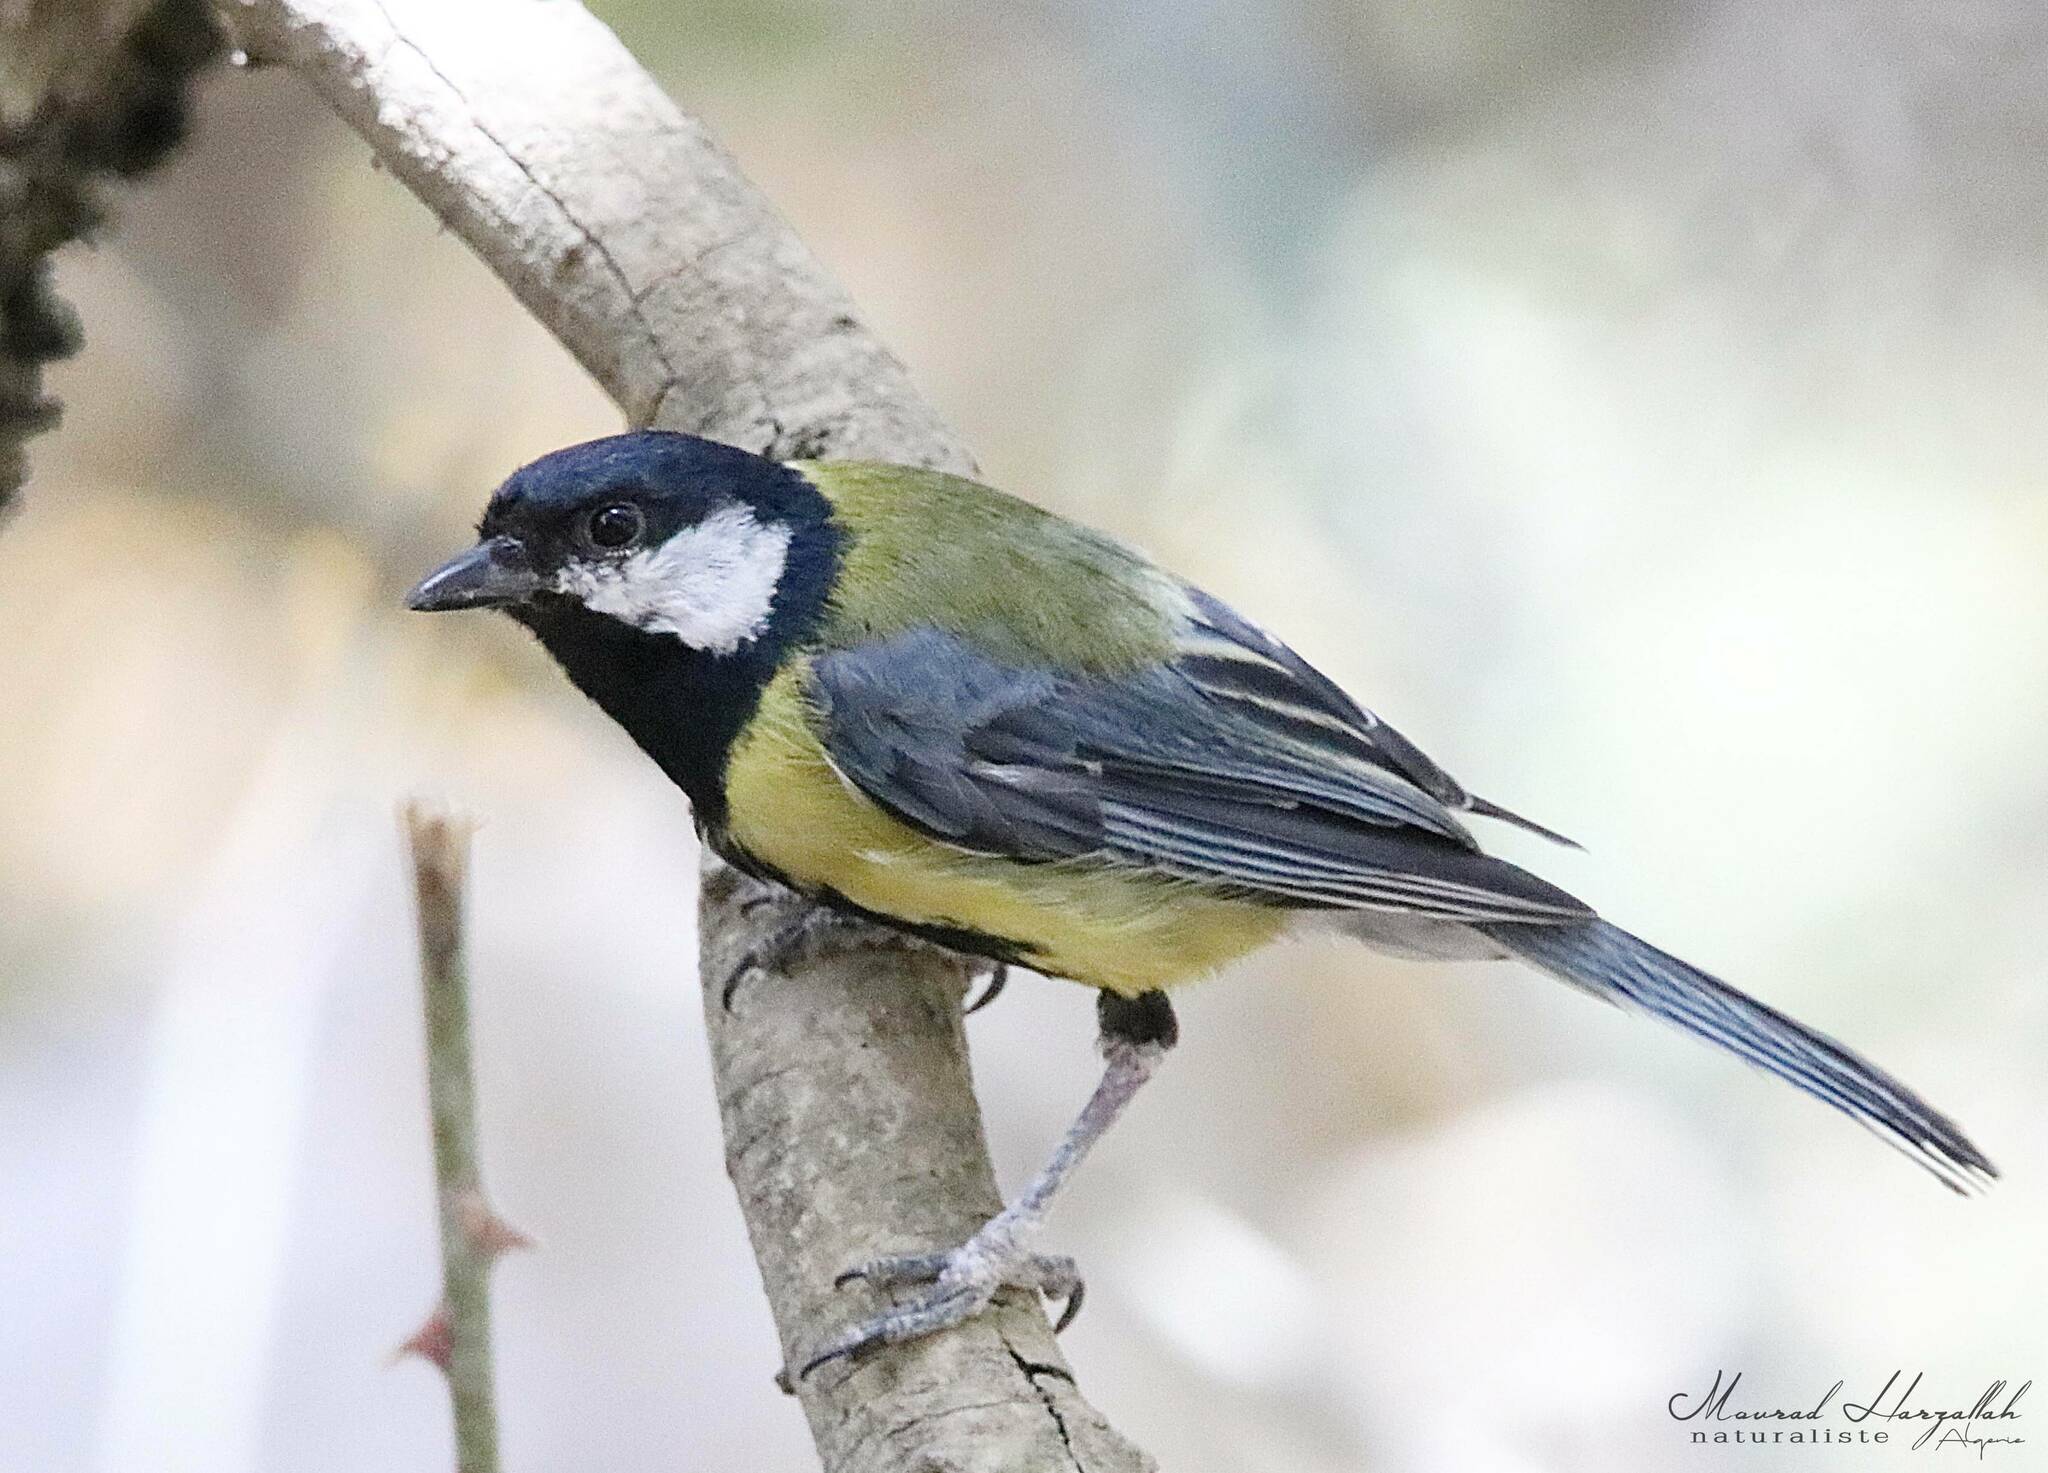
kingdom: Animalia
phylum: Chordata
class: Aves
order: Passeriformes
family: Paridae
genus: Parus
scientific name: Parus major
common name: Great tit
